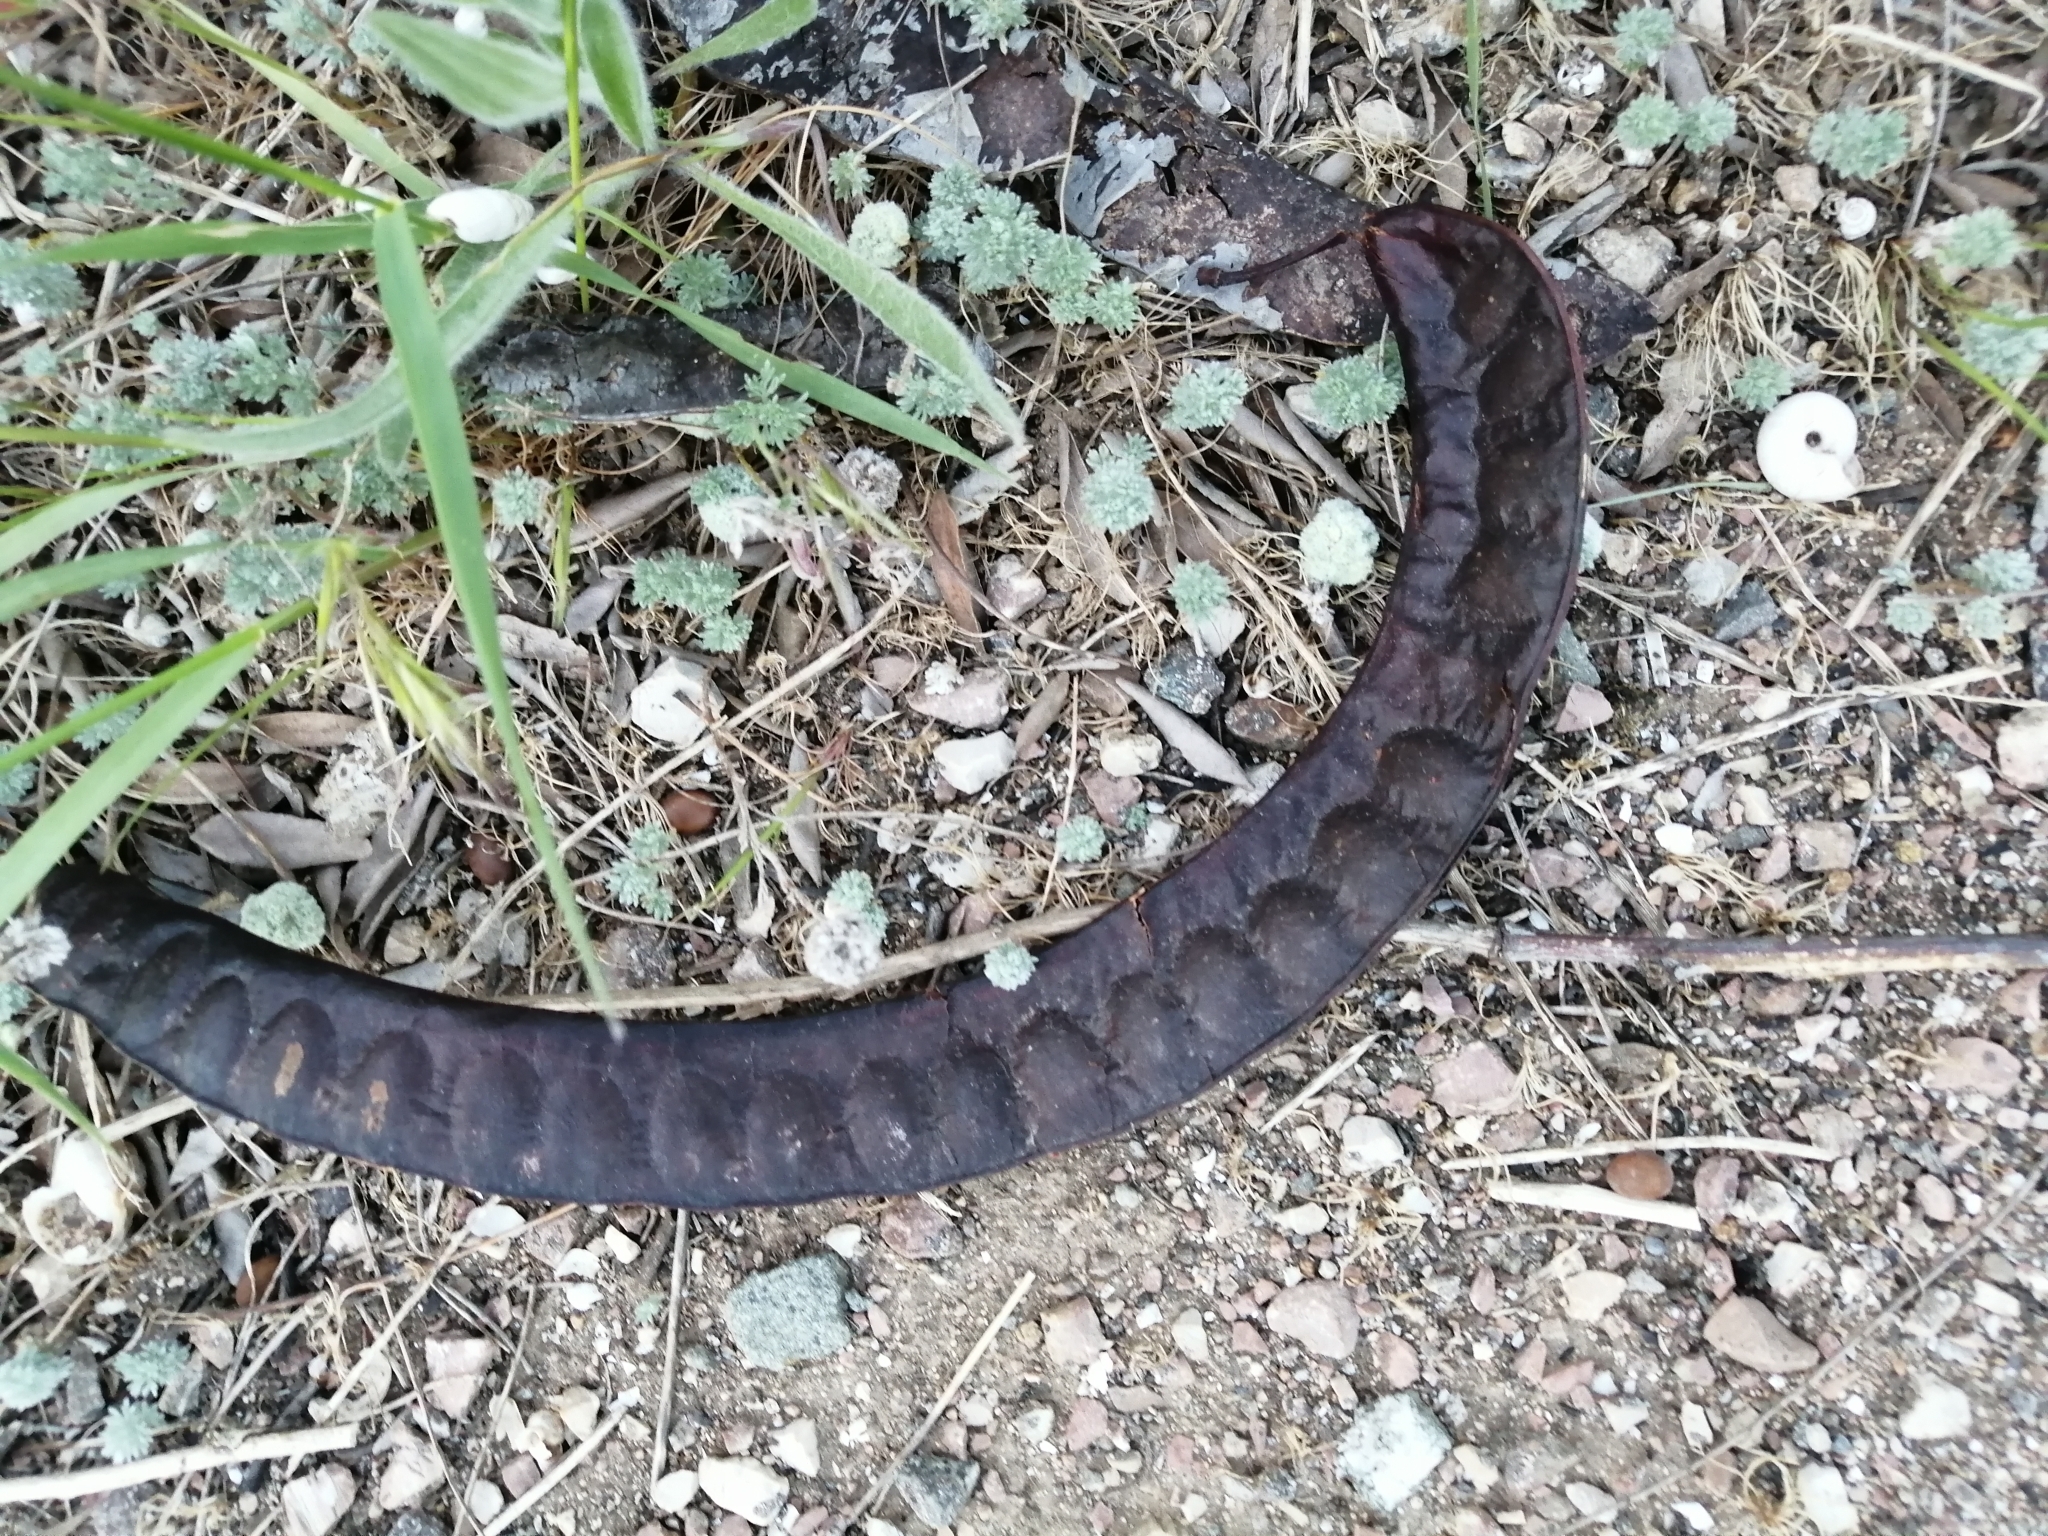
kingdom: Plantae
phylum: Tracheophyta
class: Magnoliopsida
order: Fabales
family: Fabaceae
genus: Gleditsia
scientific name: Gleditsia triacanthos
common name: Common honeylocust
